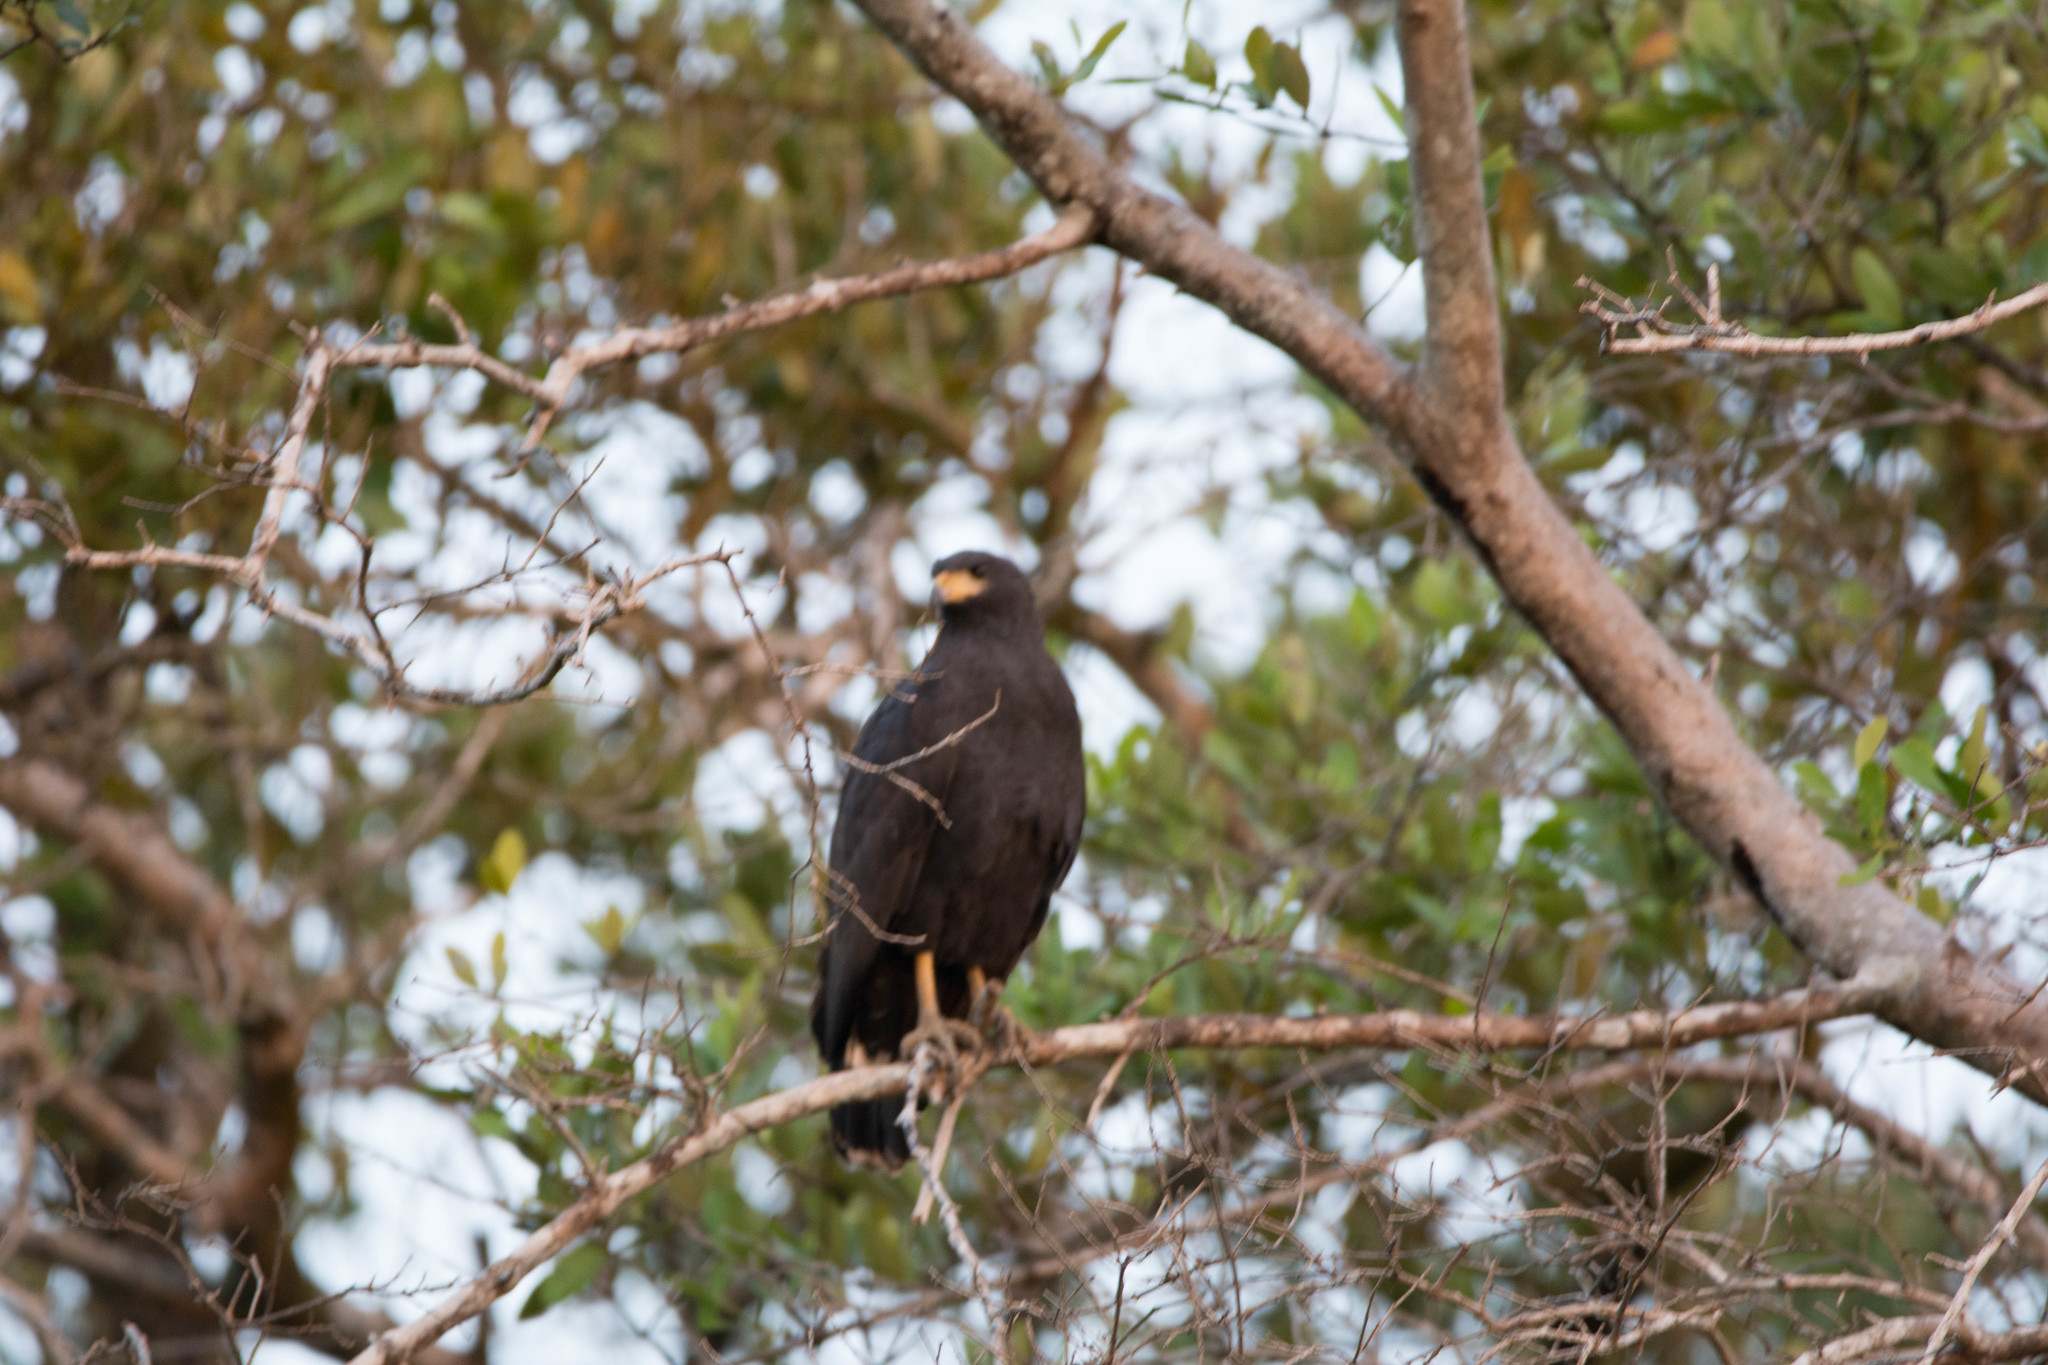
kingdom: Animalia
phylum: Chordata
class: Aves
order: Accipitriformes
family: Accipitridae
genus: Buteogallus
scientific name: Buteogallus anthracinus
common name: Common black hawk
